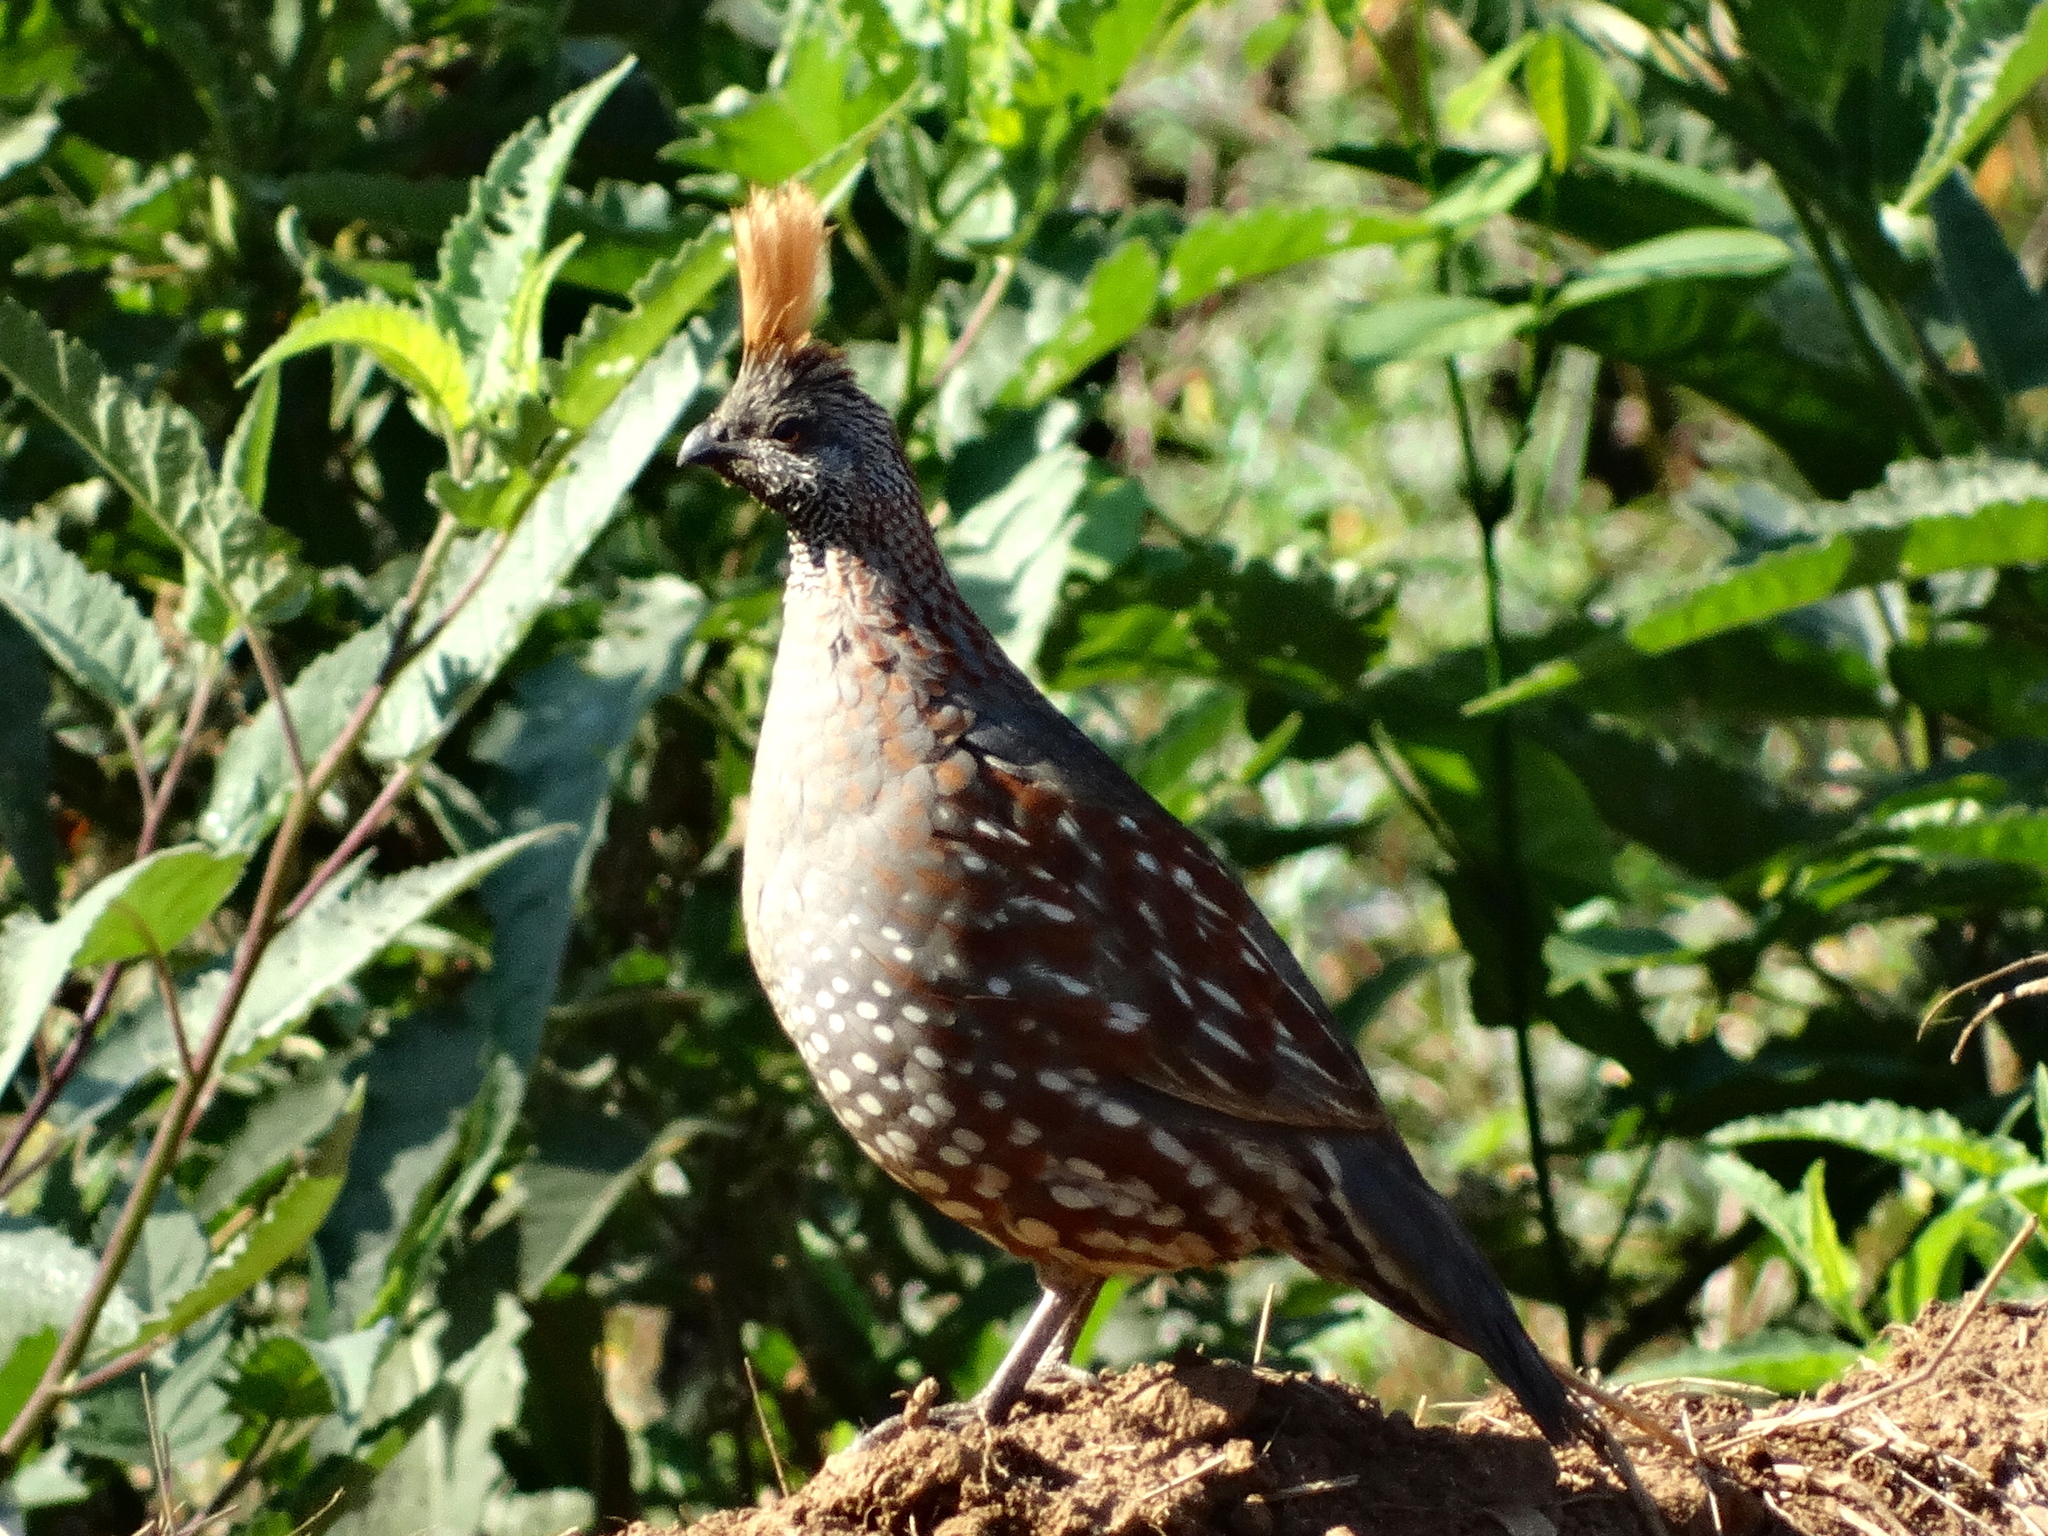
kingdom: Animalia
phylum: Chordata
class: Aves
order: Galliformes
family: Odontophoridae
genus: Callipepla
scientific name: Callipepla douglasii
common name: Elegant quail
